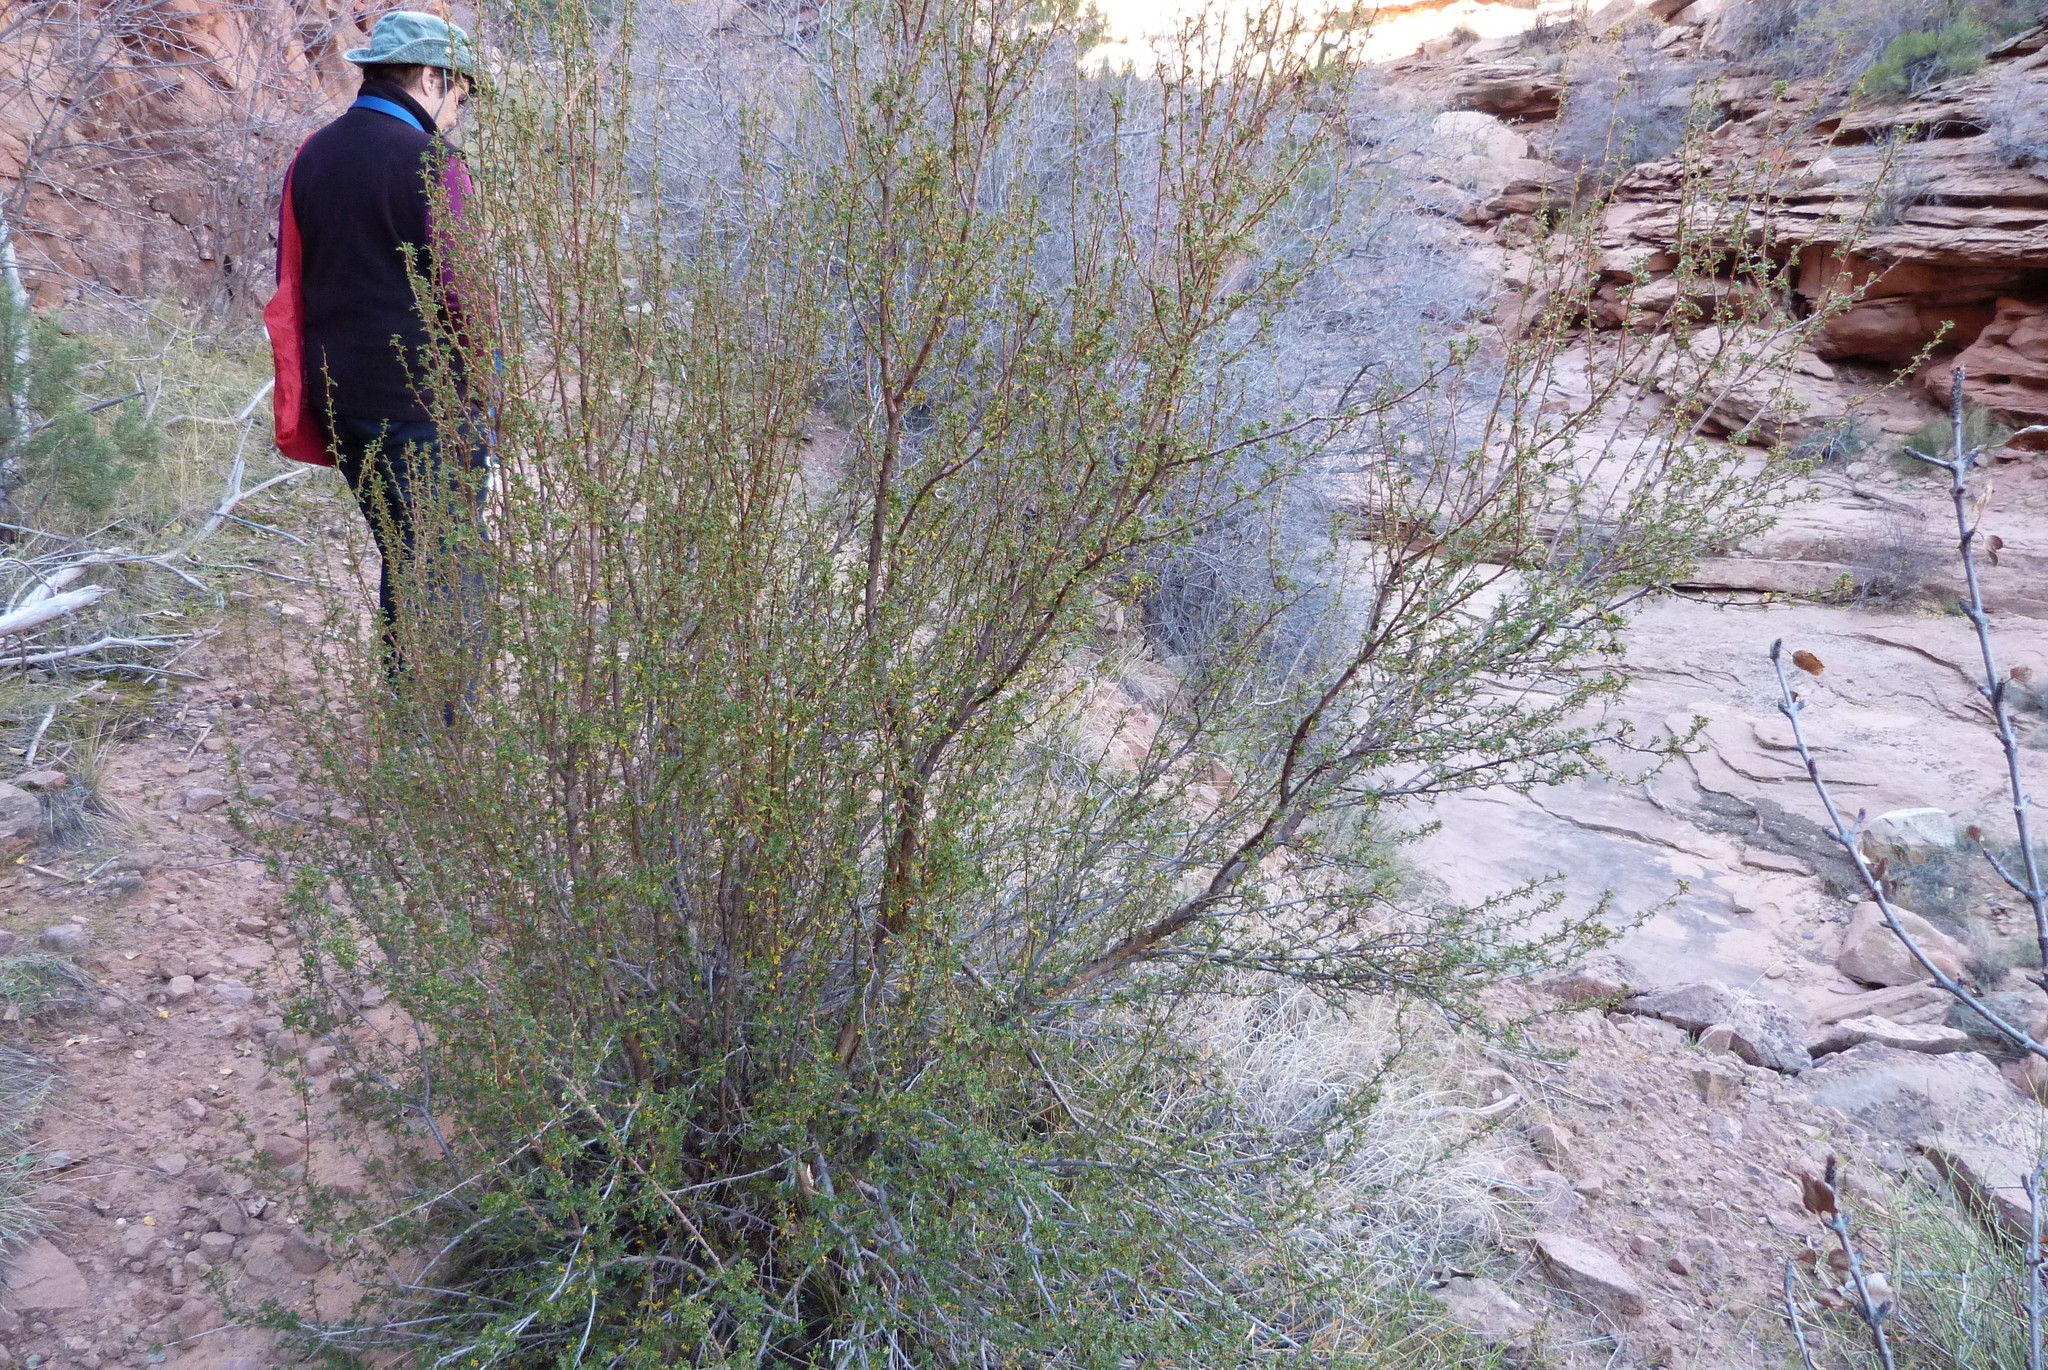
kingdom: Plantae
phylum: Tracheophyta
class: Magnoliopsida
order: Rosales
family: Rosaceae
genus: Purshia
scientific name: Purshia stansburiana
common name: Stansbury's cliffrose
